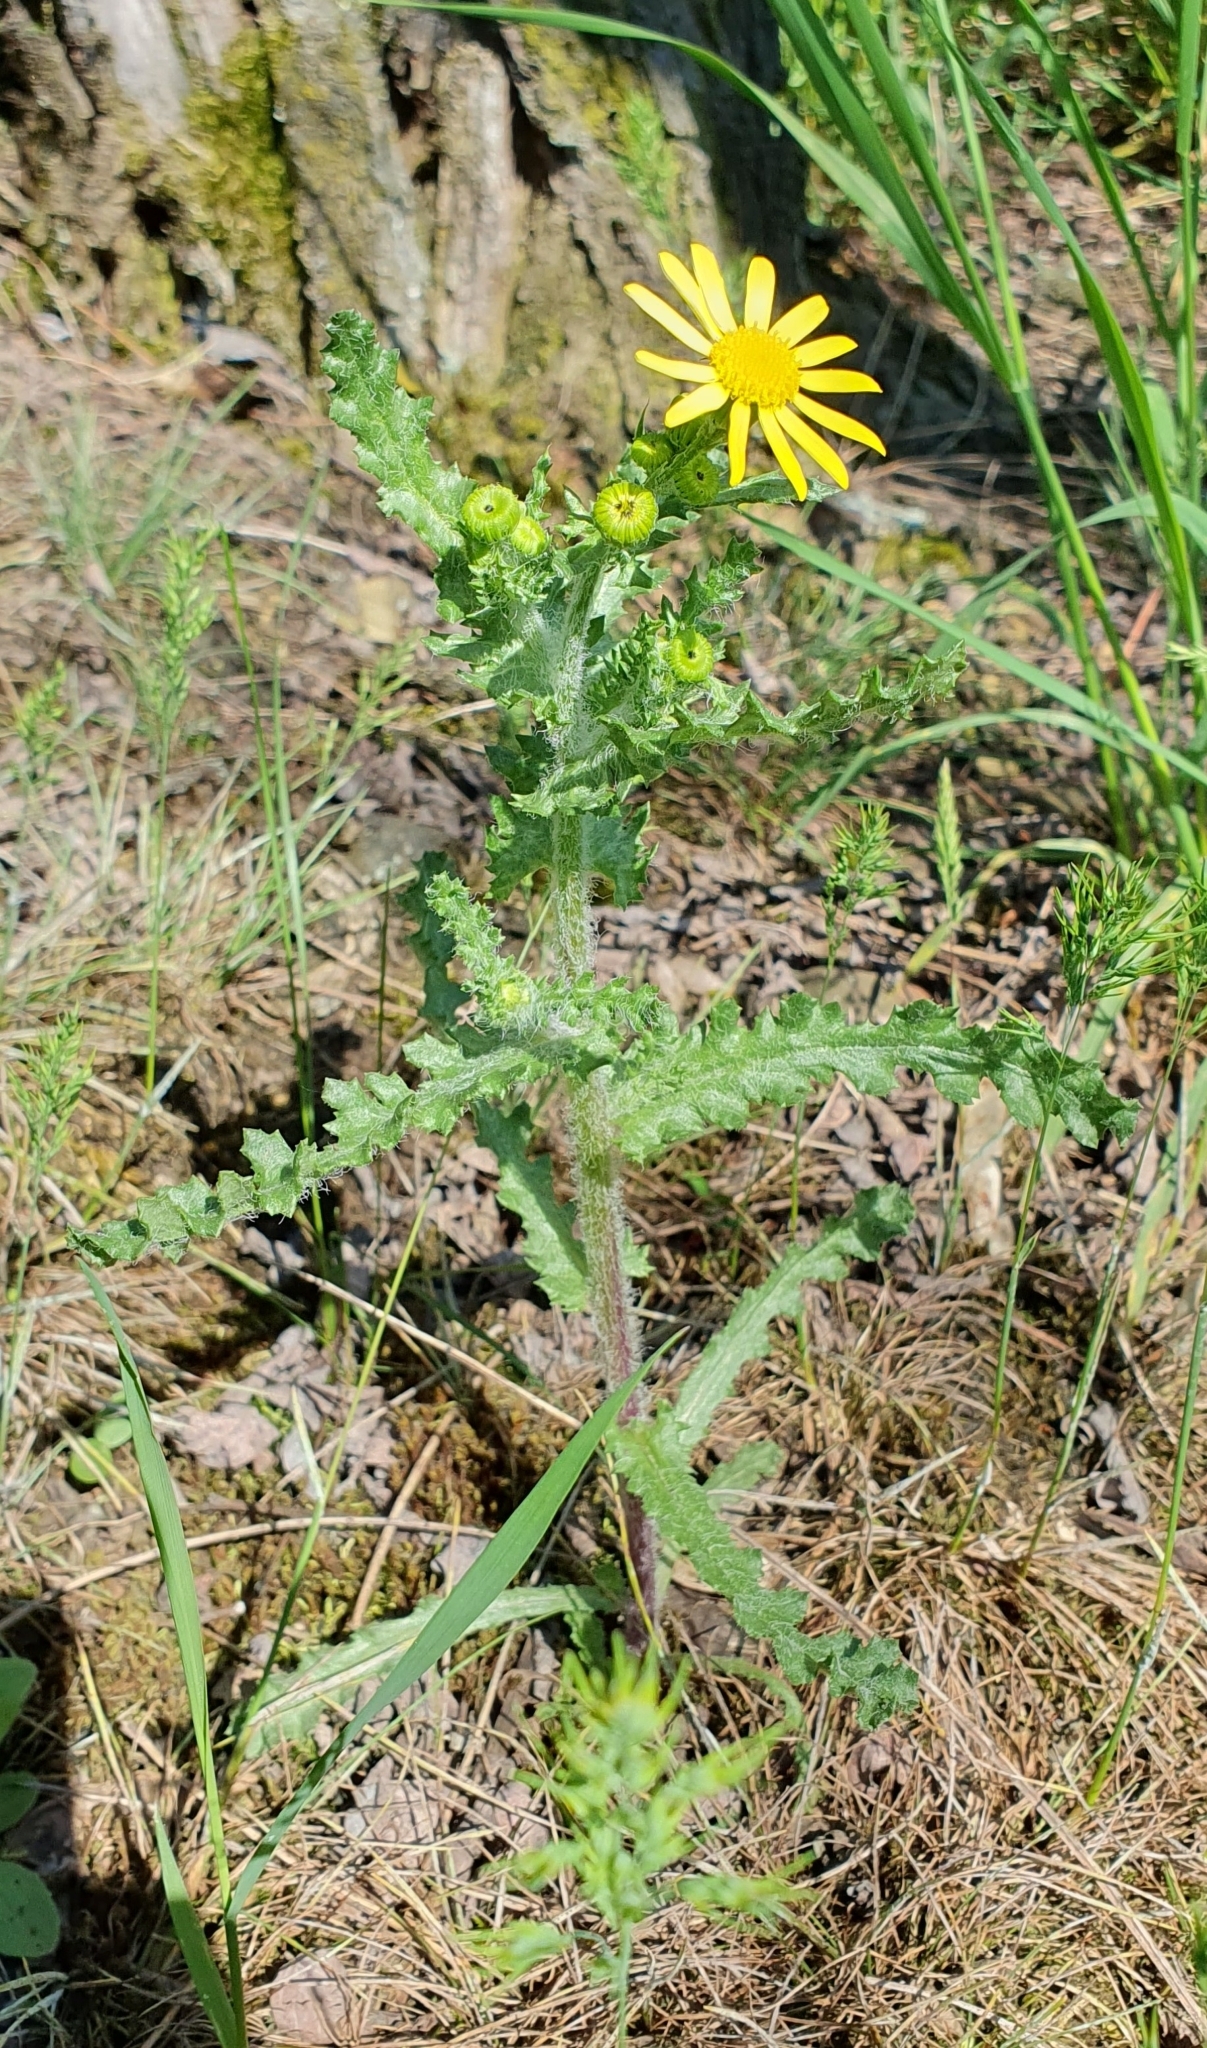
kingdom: Plantae
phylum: Tracheophyta
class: Magnoliopsida
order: Asterales
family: Asteraceae
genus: Senecio
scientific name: Senecio vernalis
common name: Eastern groundsel
